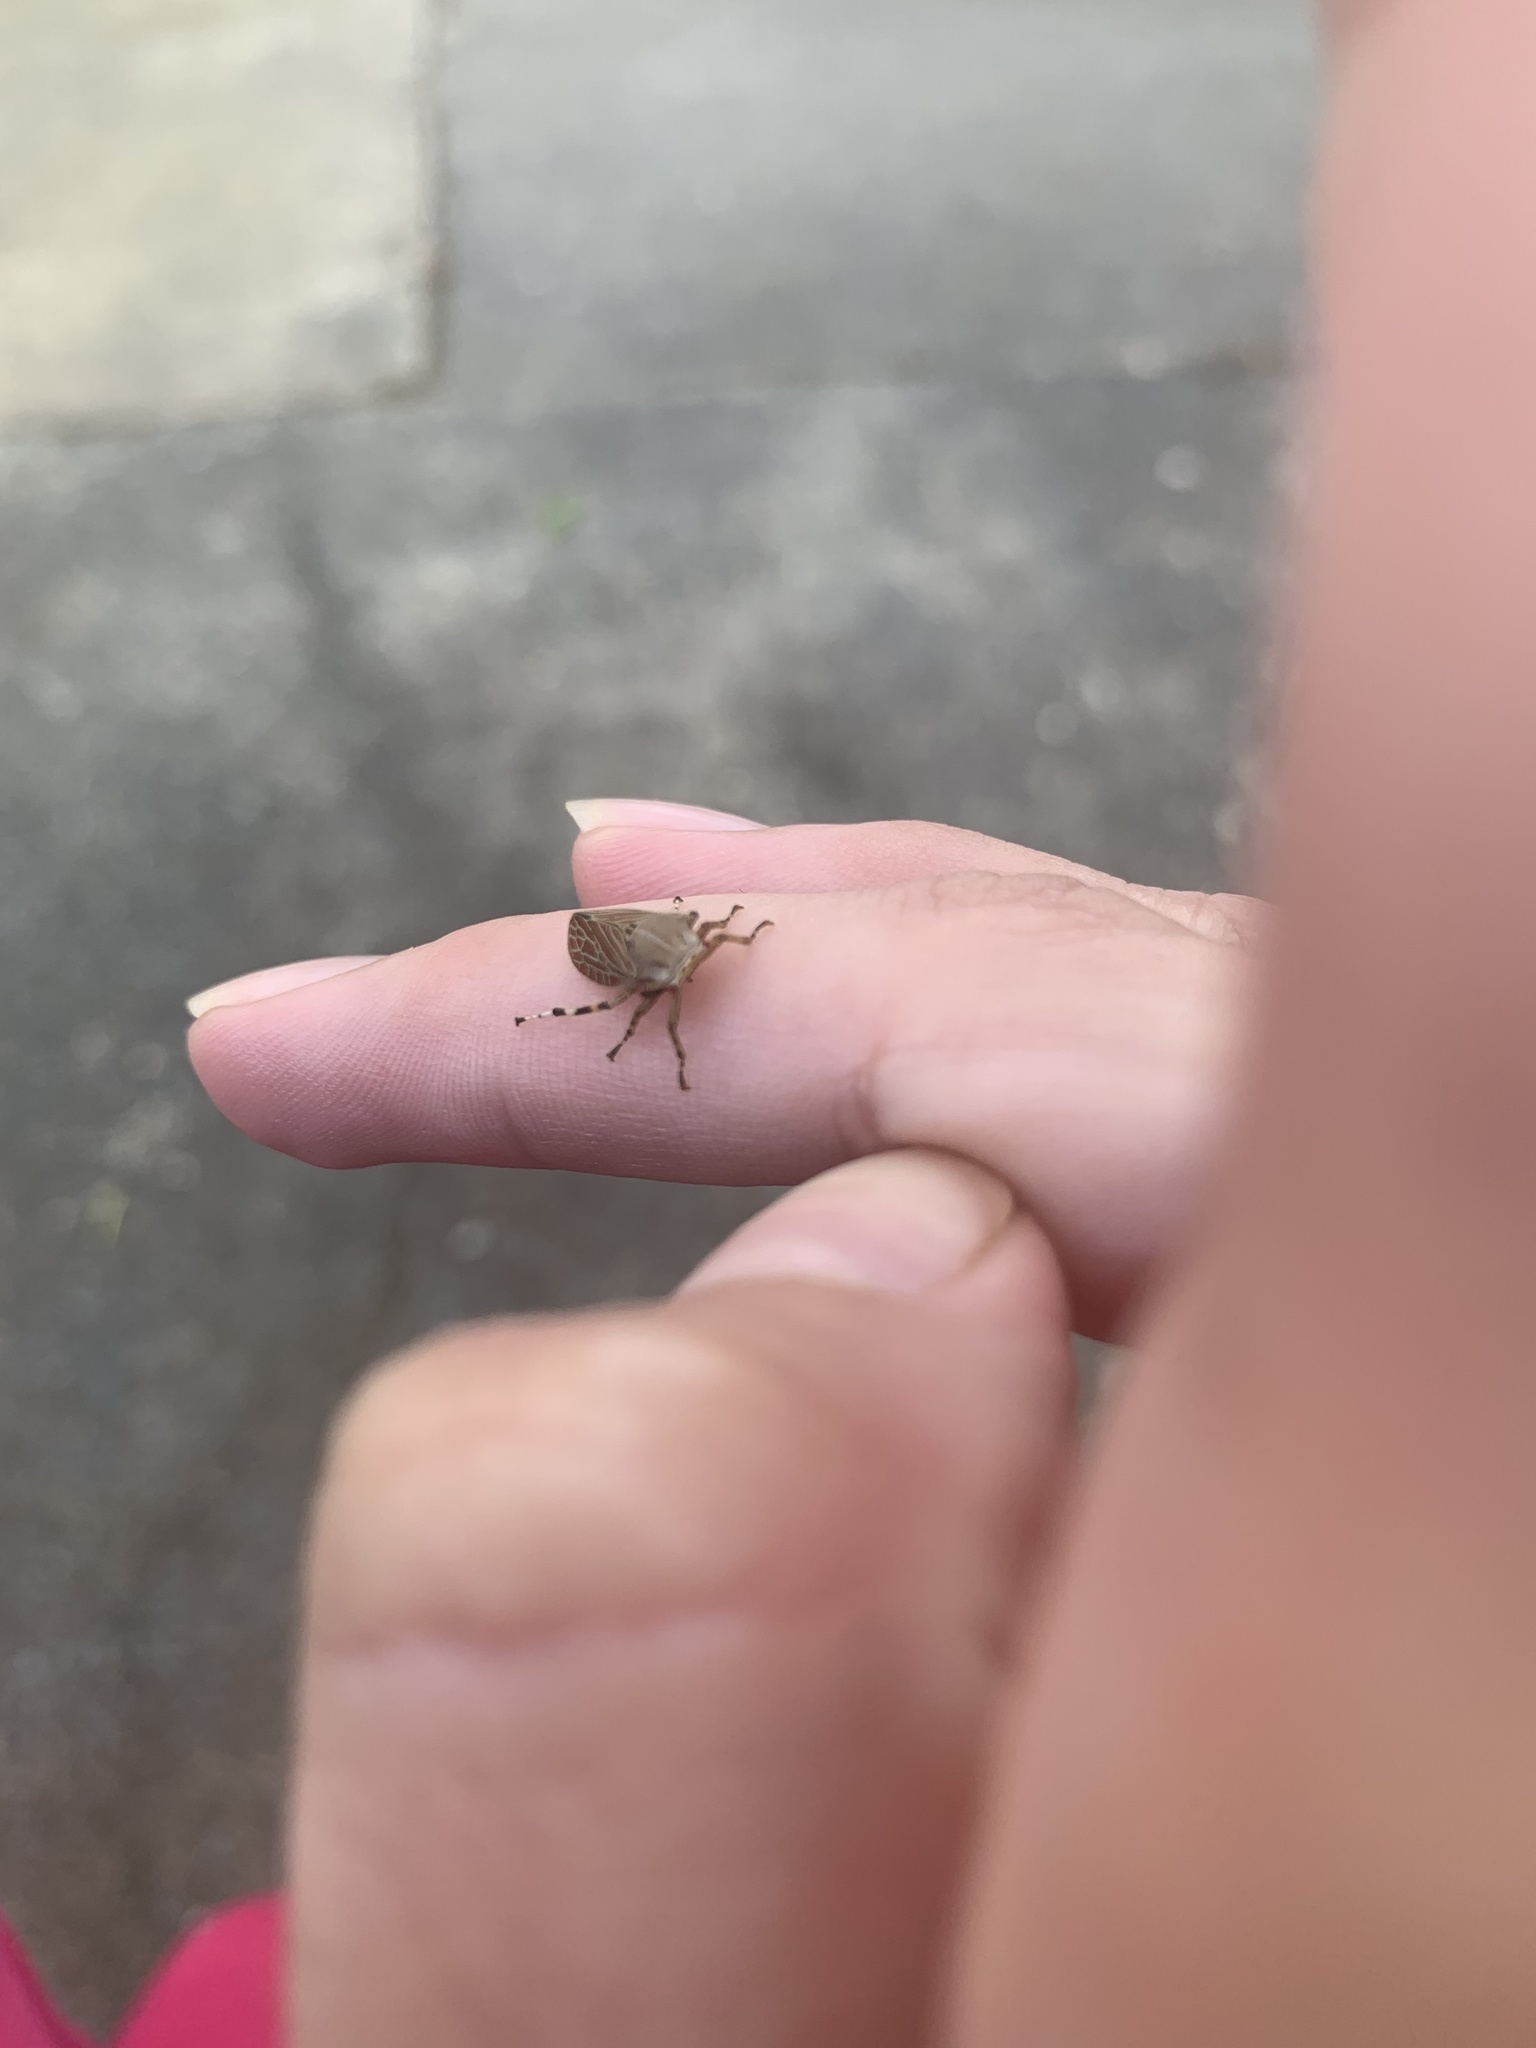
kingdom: Animalia
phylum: Arthropoda
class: Insecta
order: Hemiptera
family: Aetalionidae
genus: Aetalion
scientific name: Aetalion reticulatum
